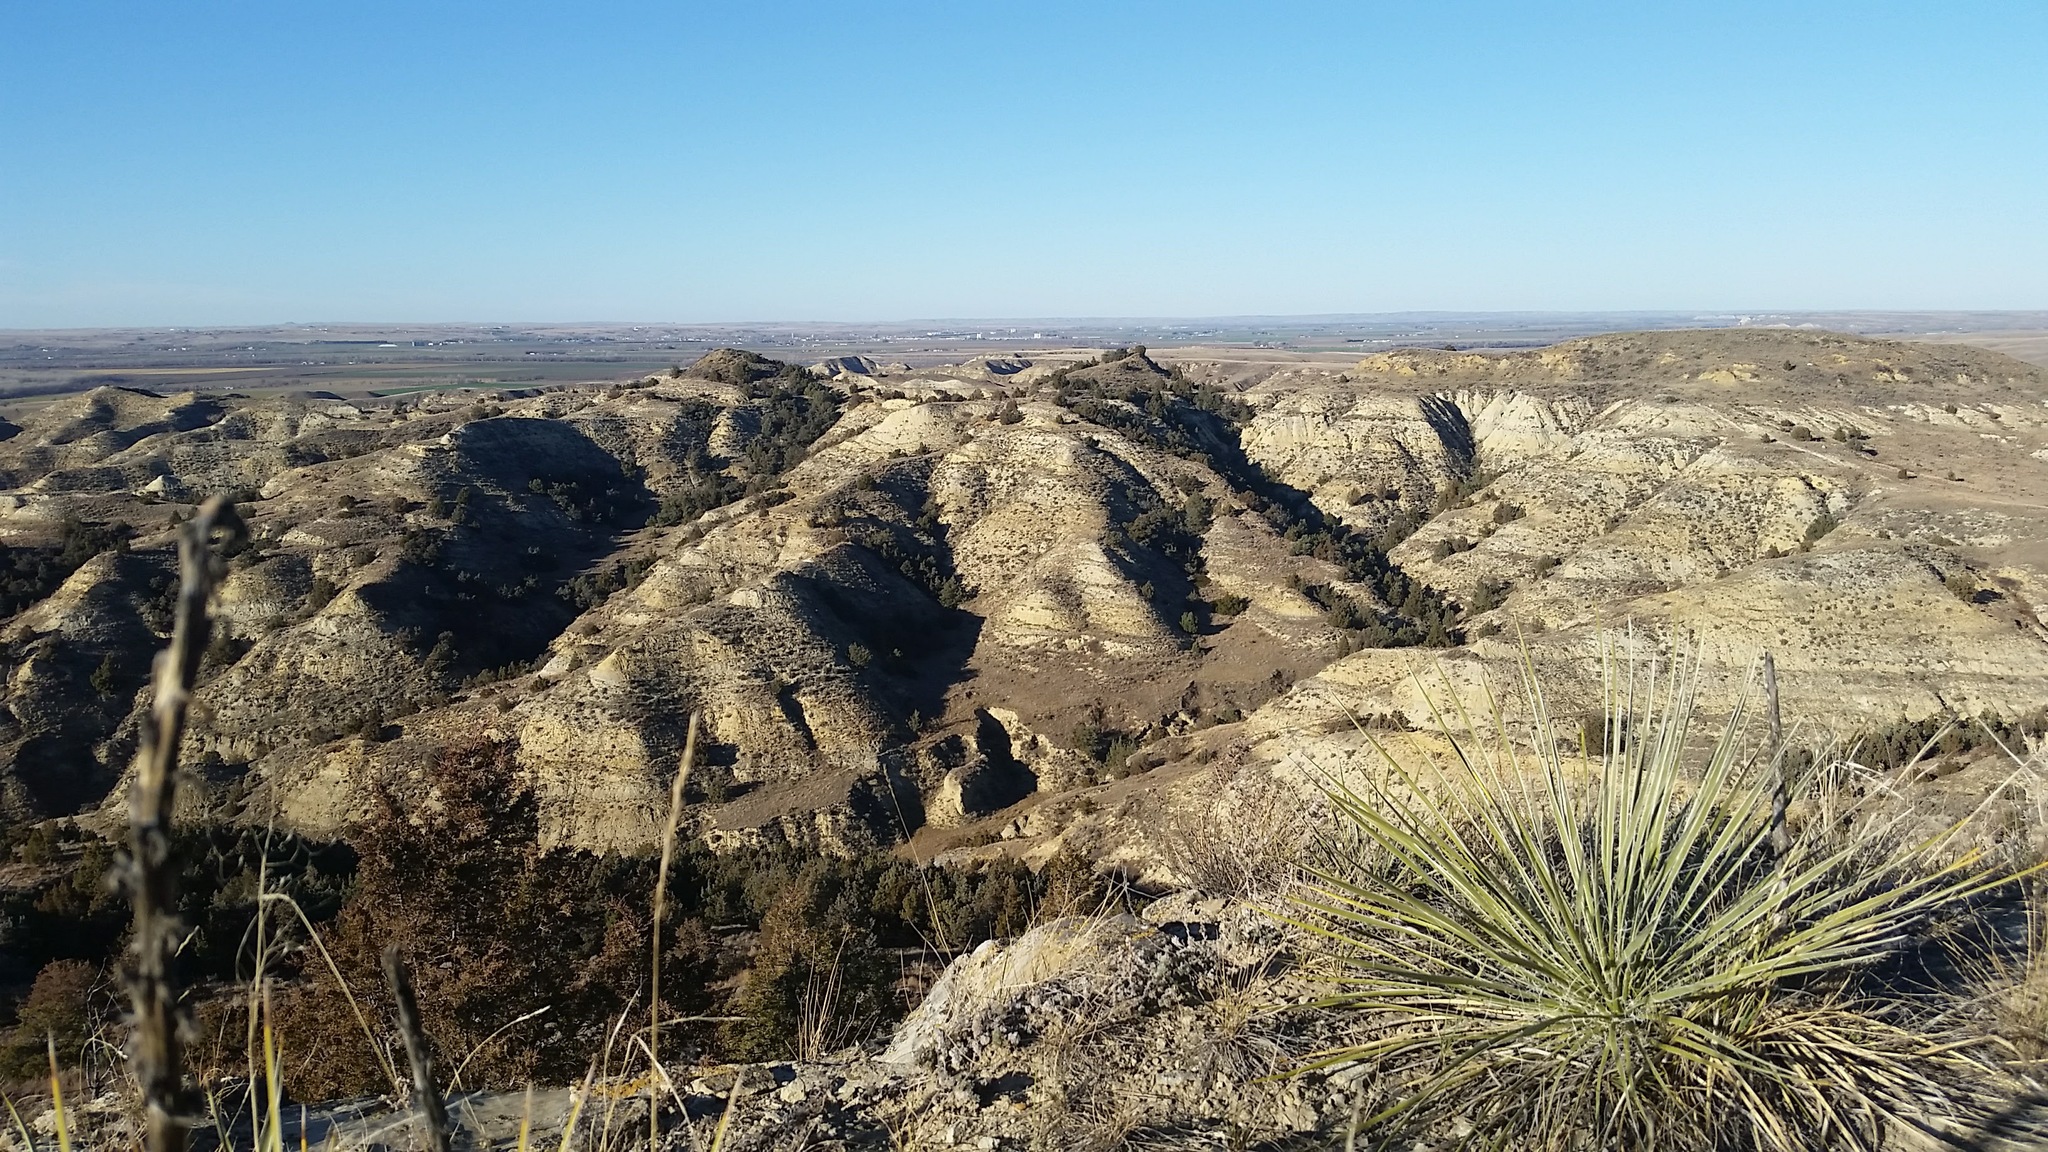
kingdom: Plantae
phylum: Tracheophyta
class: Liliopsida
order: Asparagales
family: Asparagaceae
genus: Yucca
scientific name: Yucca glauca
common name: Great plains yucca
